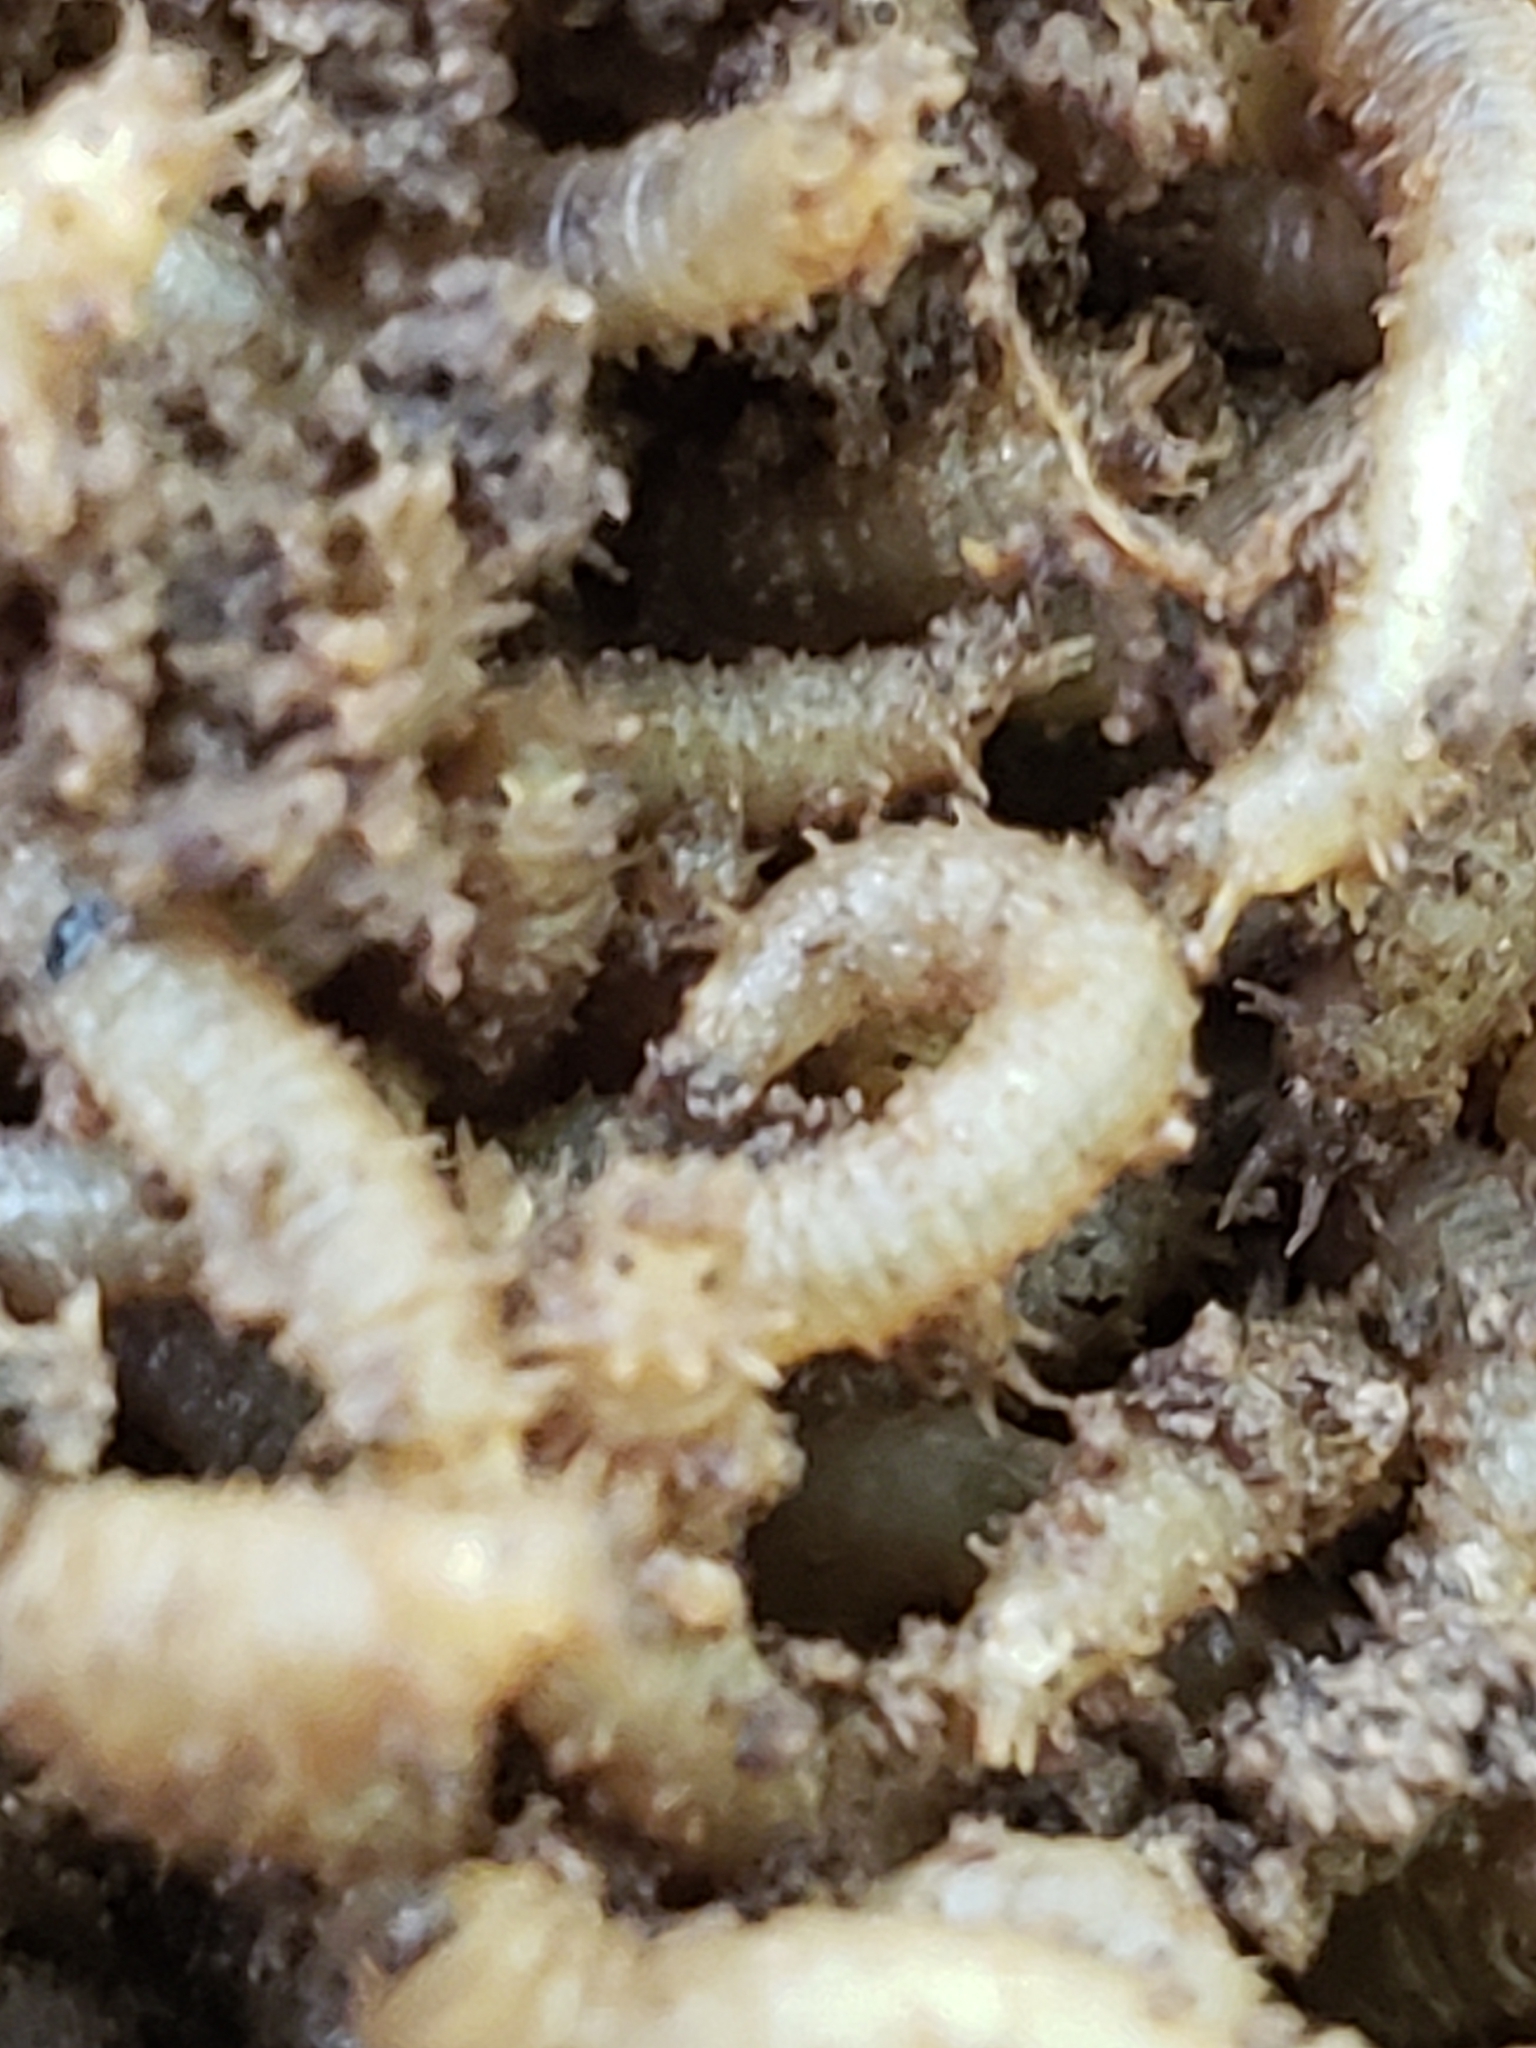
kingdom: Animalia
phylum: Arthropoda
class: Insecta
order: Diptera
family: Bibionidae
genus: Bibio
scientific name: Bibio
